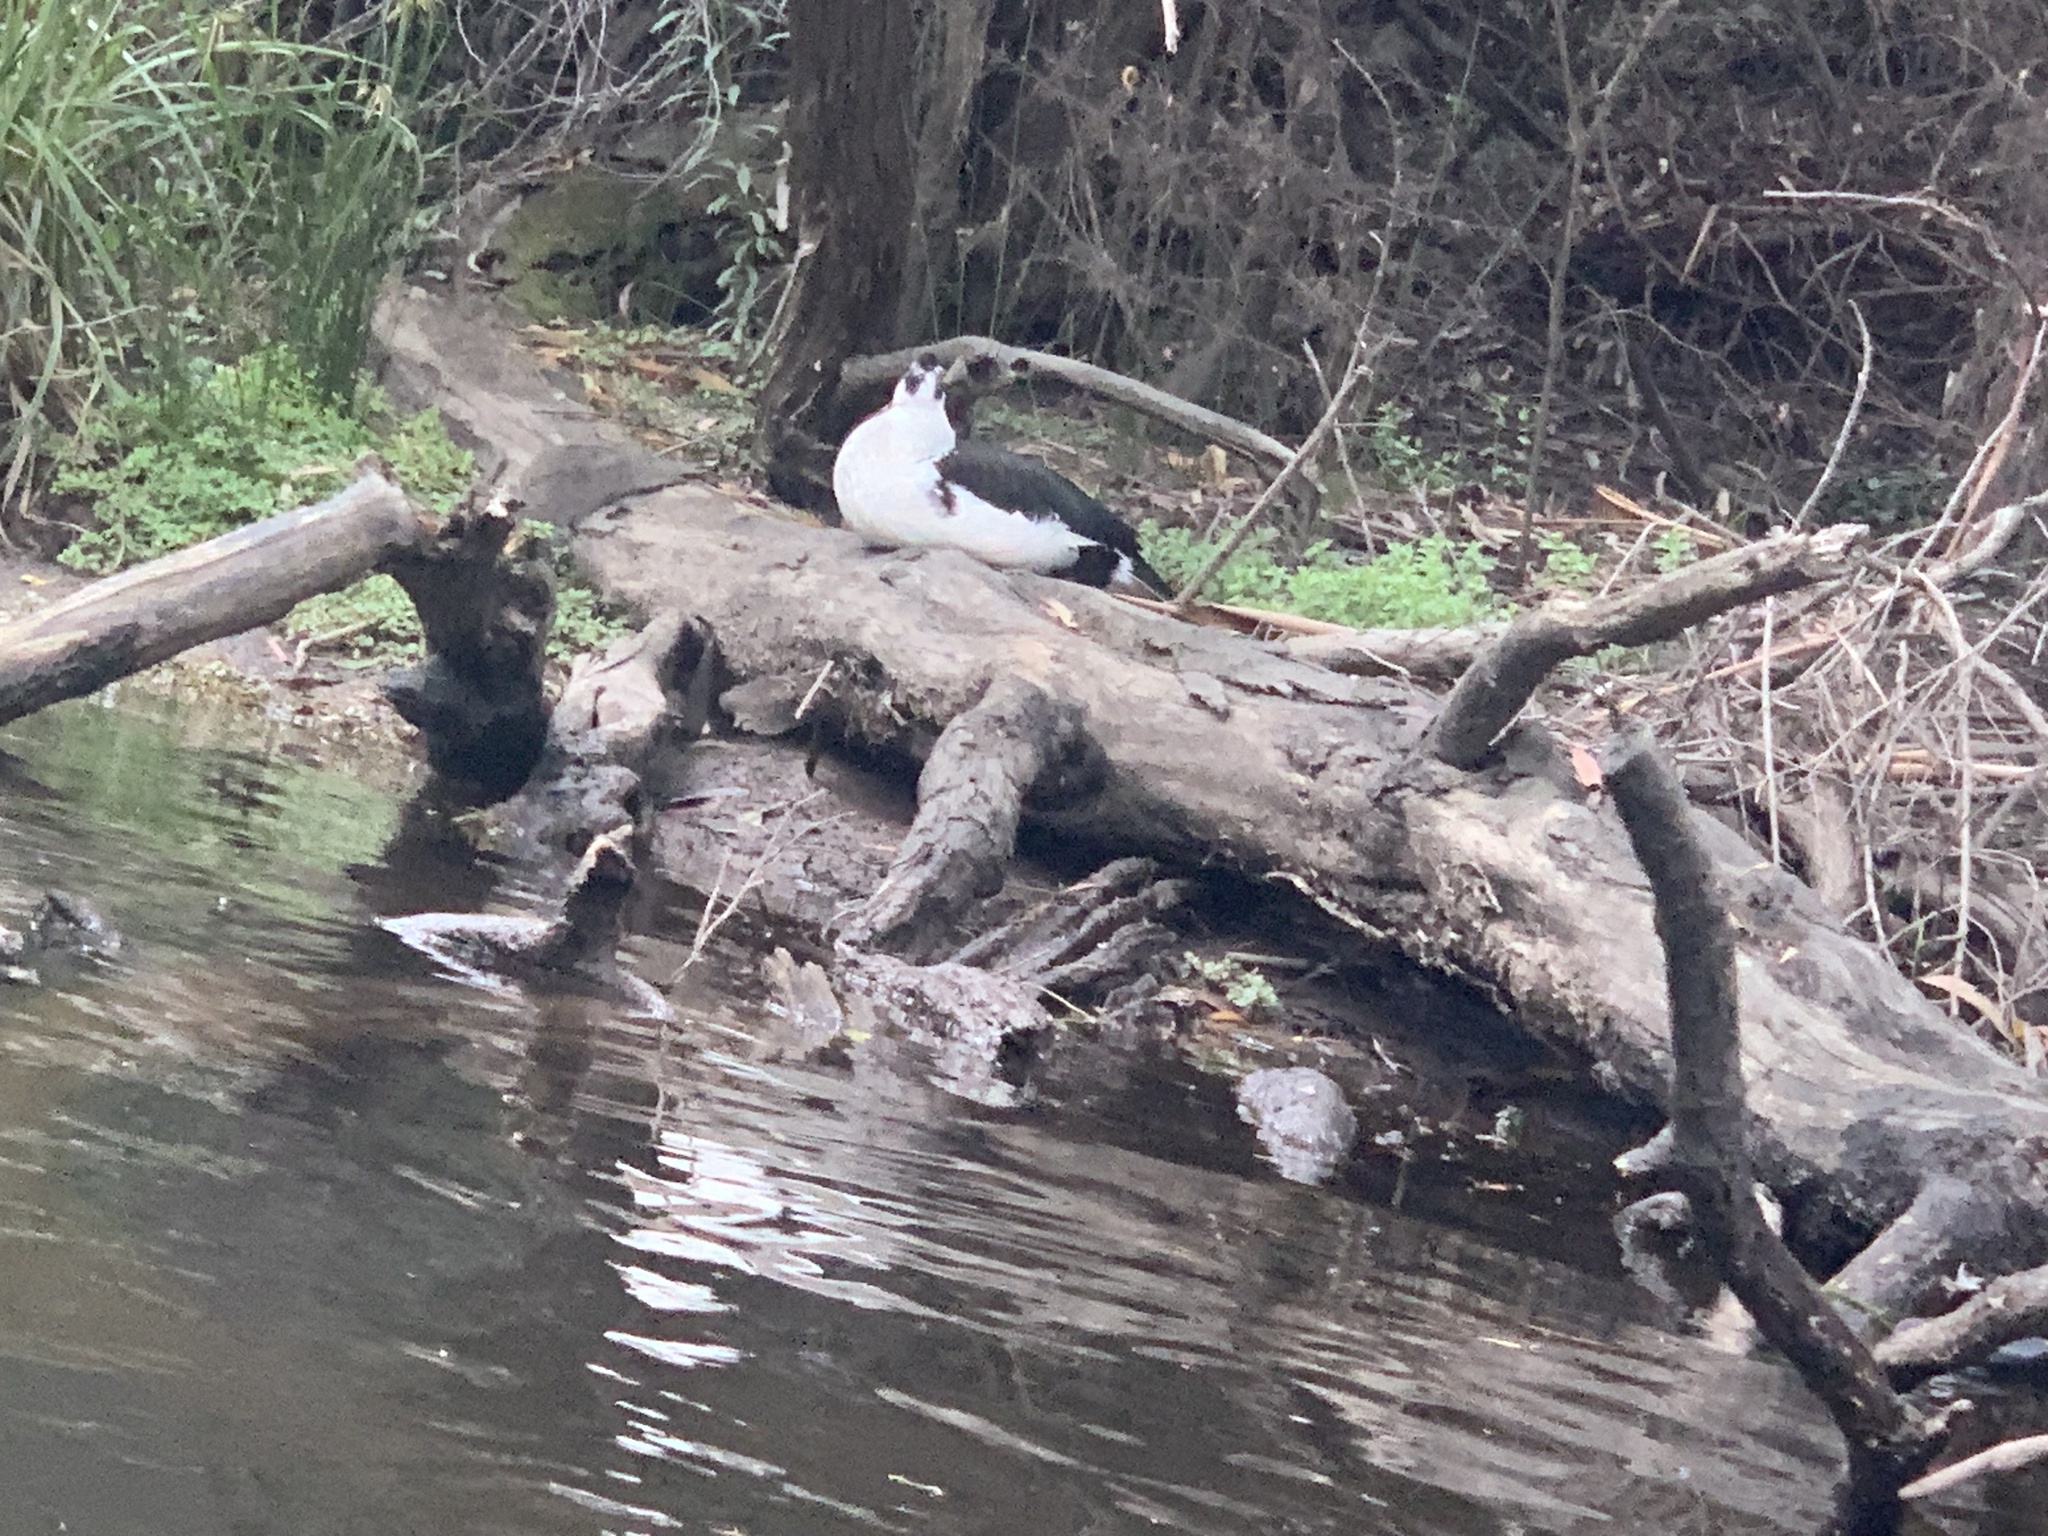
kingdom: Animalia
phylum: Chordata
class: Aves
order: Anseriformes
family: Anatidae
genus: Cairina
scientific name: Cairina moschata
